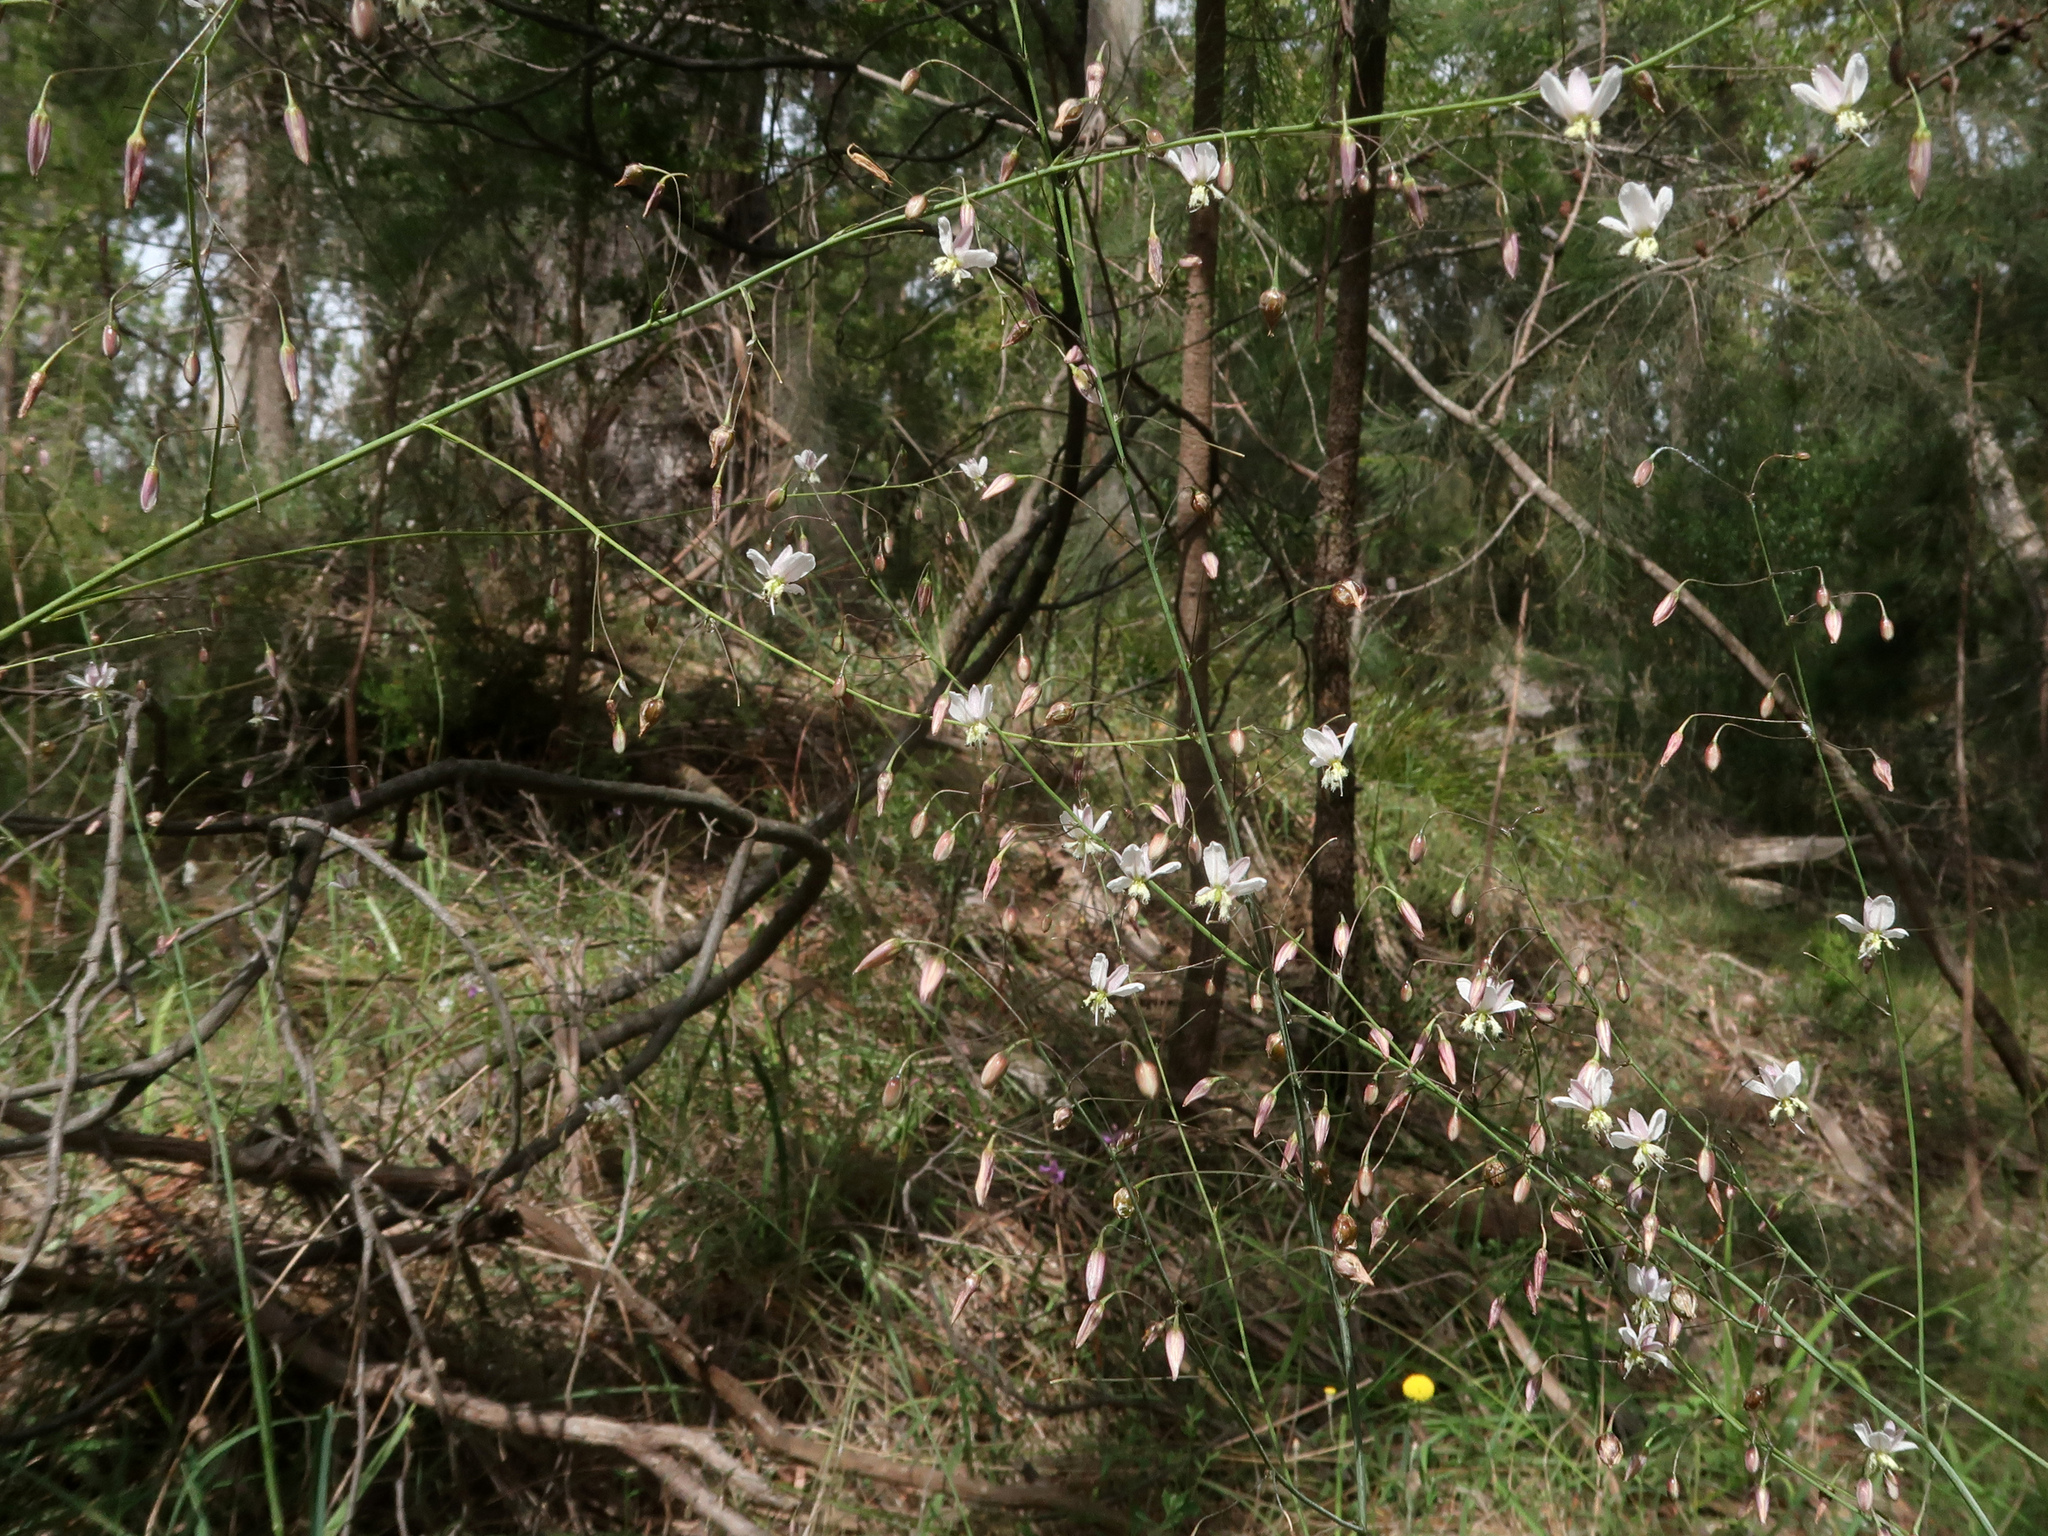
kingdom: Plantae
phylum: Tracheophyta
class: Liliopsida
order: Asparagales
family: Asparagaceae
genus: Arthropodium
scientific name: Arthropodium milleflorum
